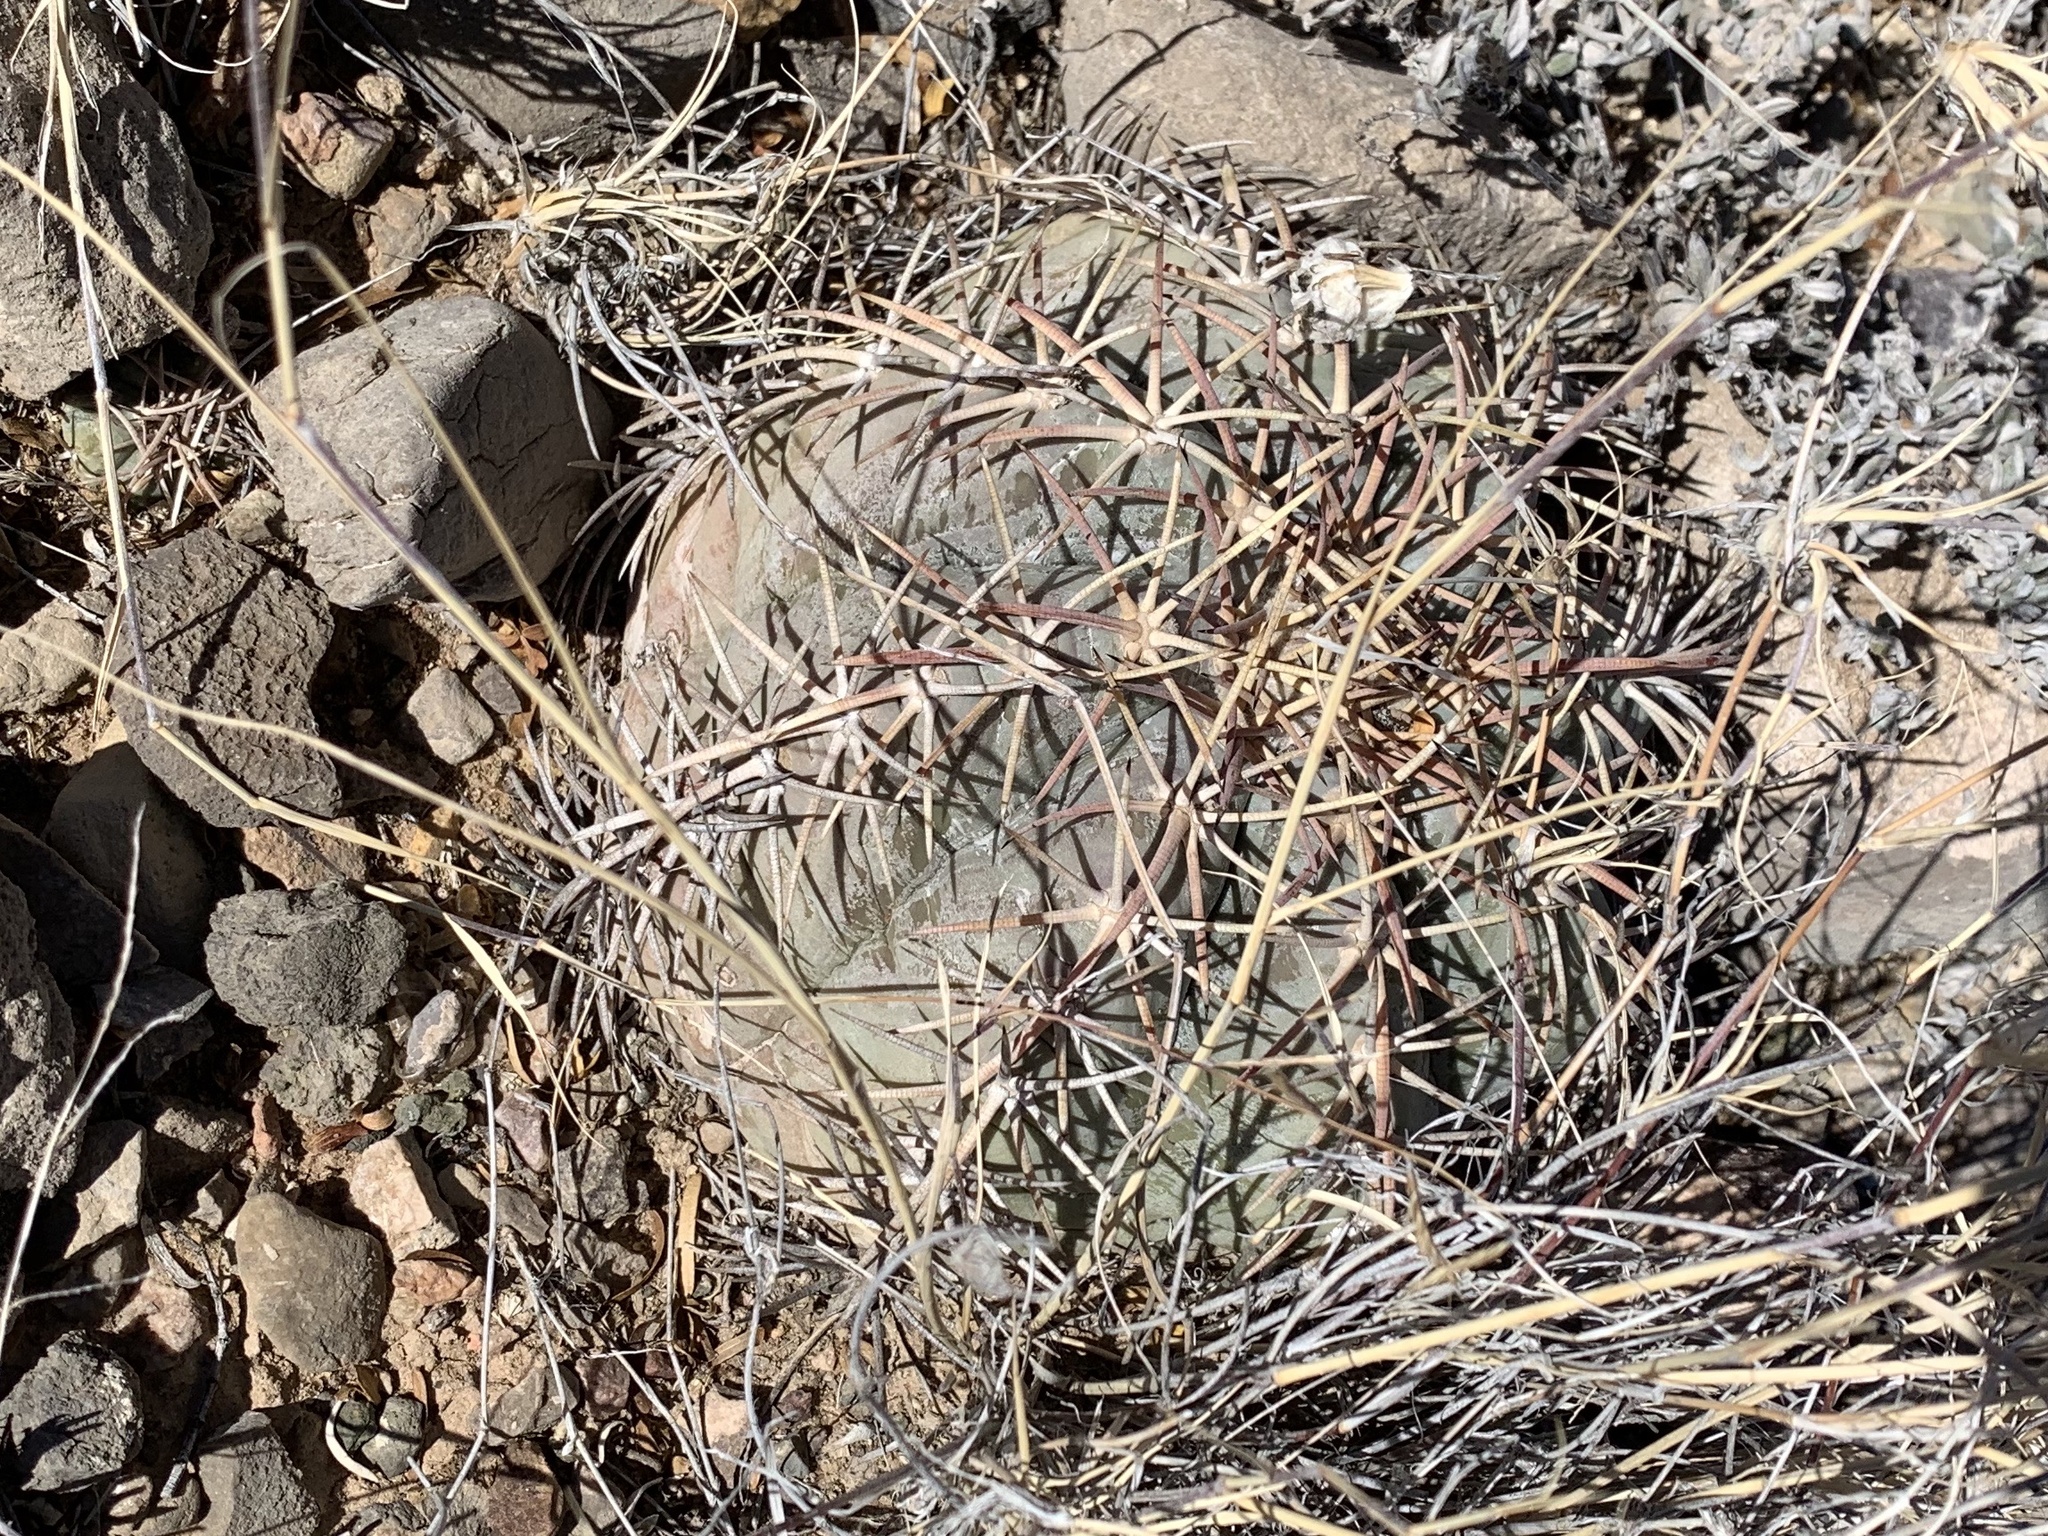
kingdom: Plantae
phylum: Tracheophyta
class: Magnoliopsida
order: Caryophyllales
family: Cactaceae
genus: Echinocactus
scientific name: Echinocactus horizonthalonius
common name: Devilshead
